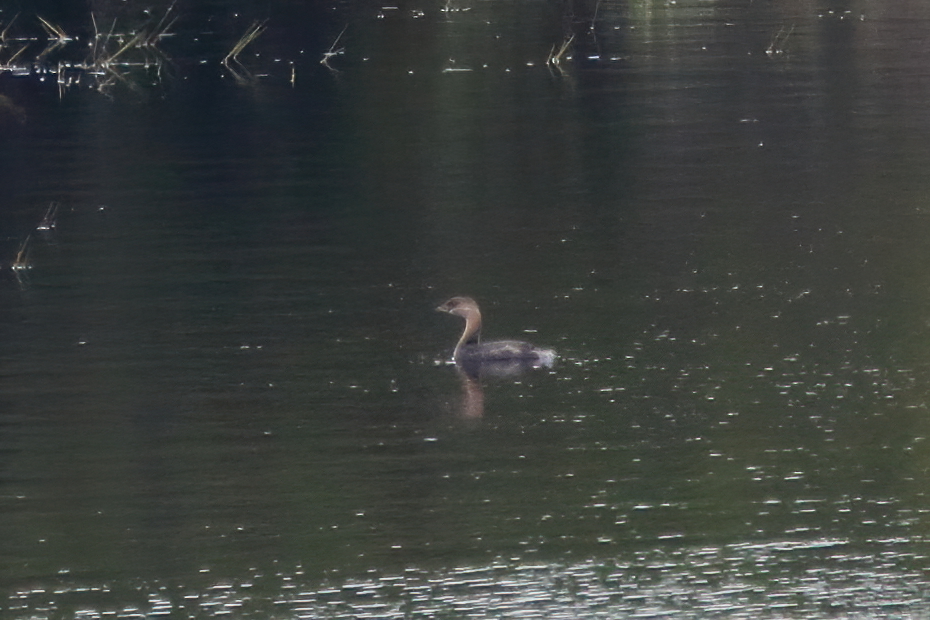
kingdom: Animalia
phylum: Chordata
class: Aves
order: Podicipediformes
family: Podicipedidae
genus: Podilymbus
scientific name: Podilymbus podiceps
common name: Pied-billed grebe
